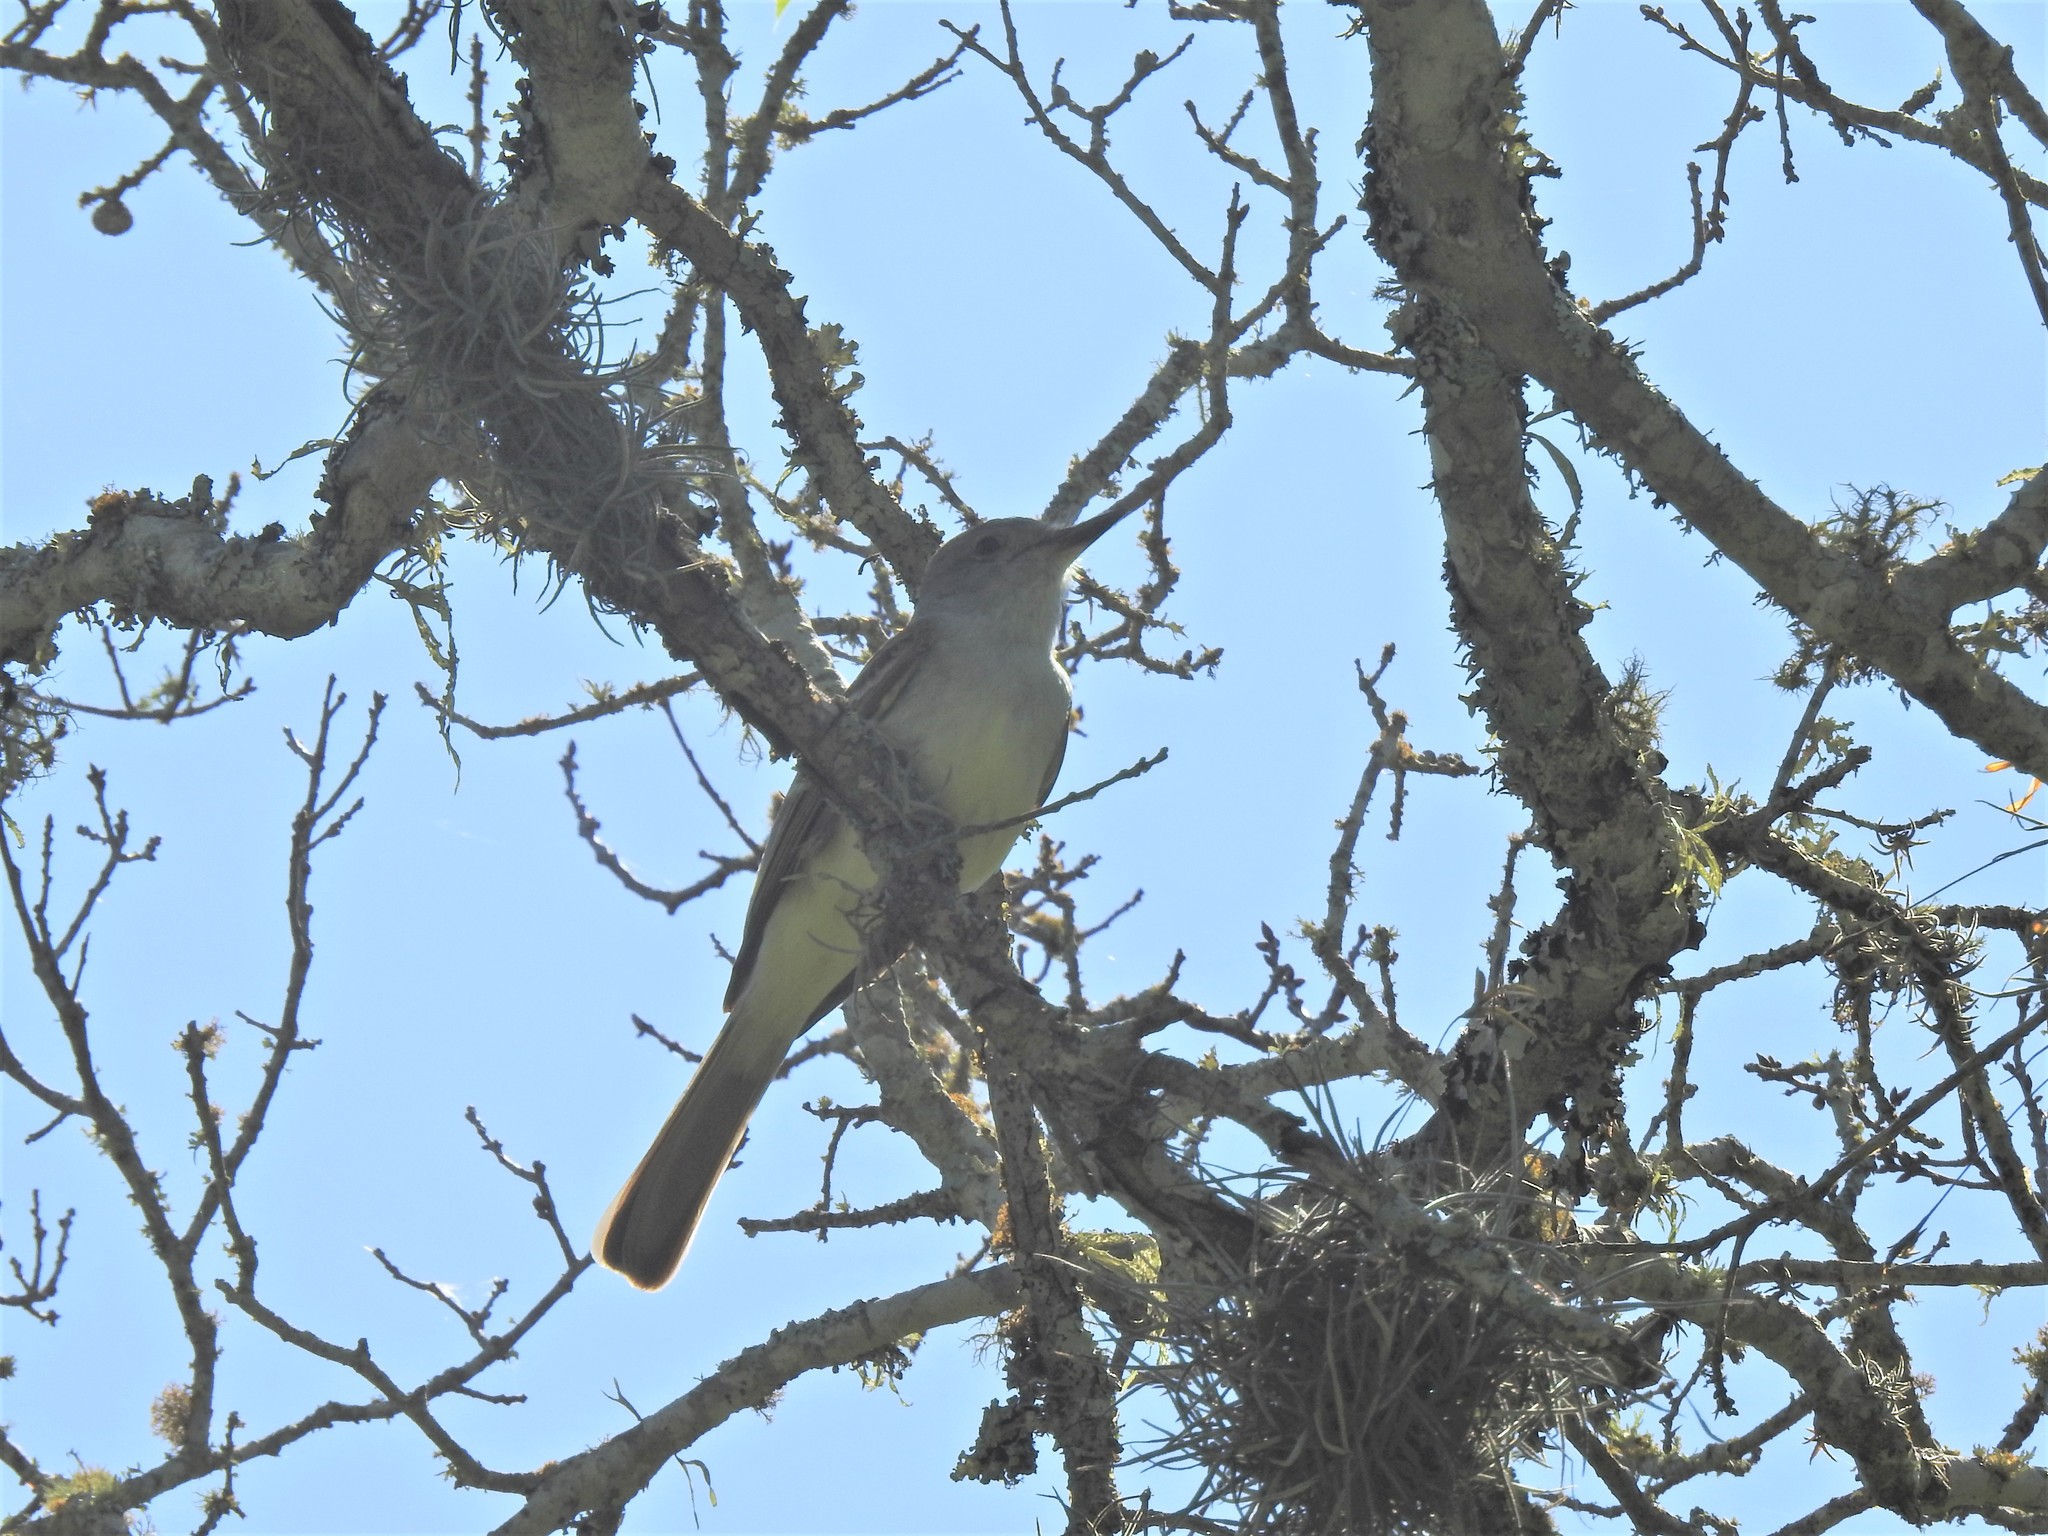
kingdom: Animalia
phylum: Chordata
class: Aves
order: Passeriformes
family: Tyrannidae
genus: Myiarchus
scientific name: Myiarchus cinerascens
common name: Ash-throated flycatcher
